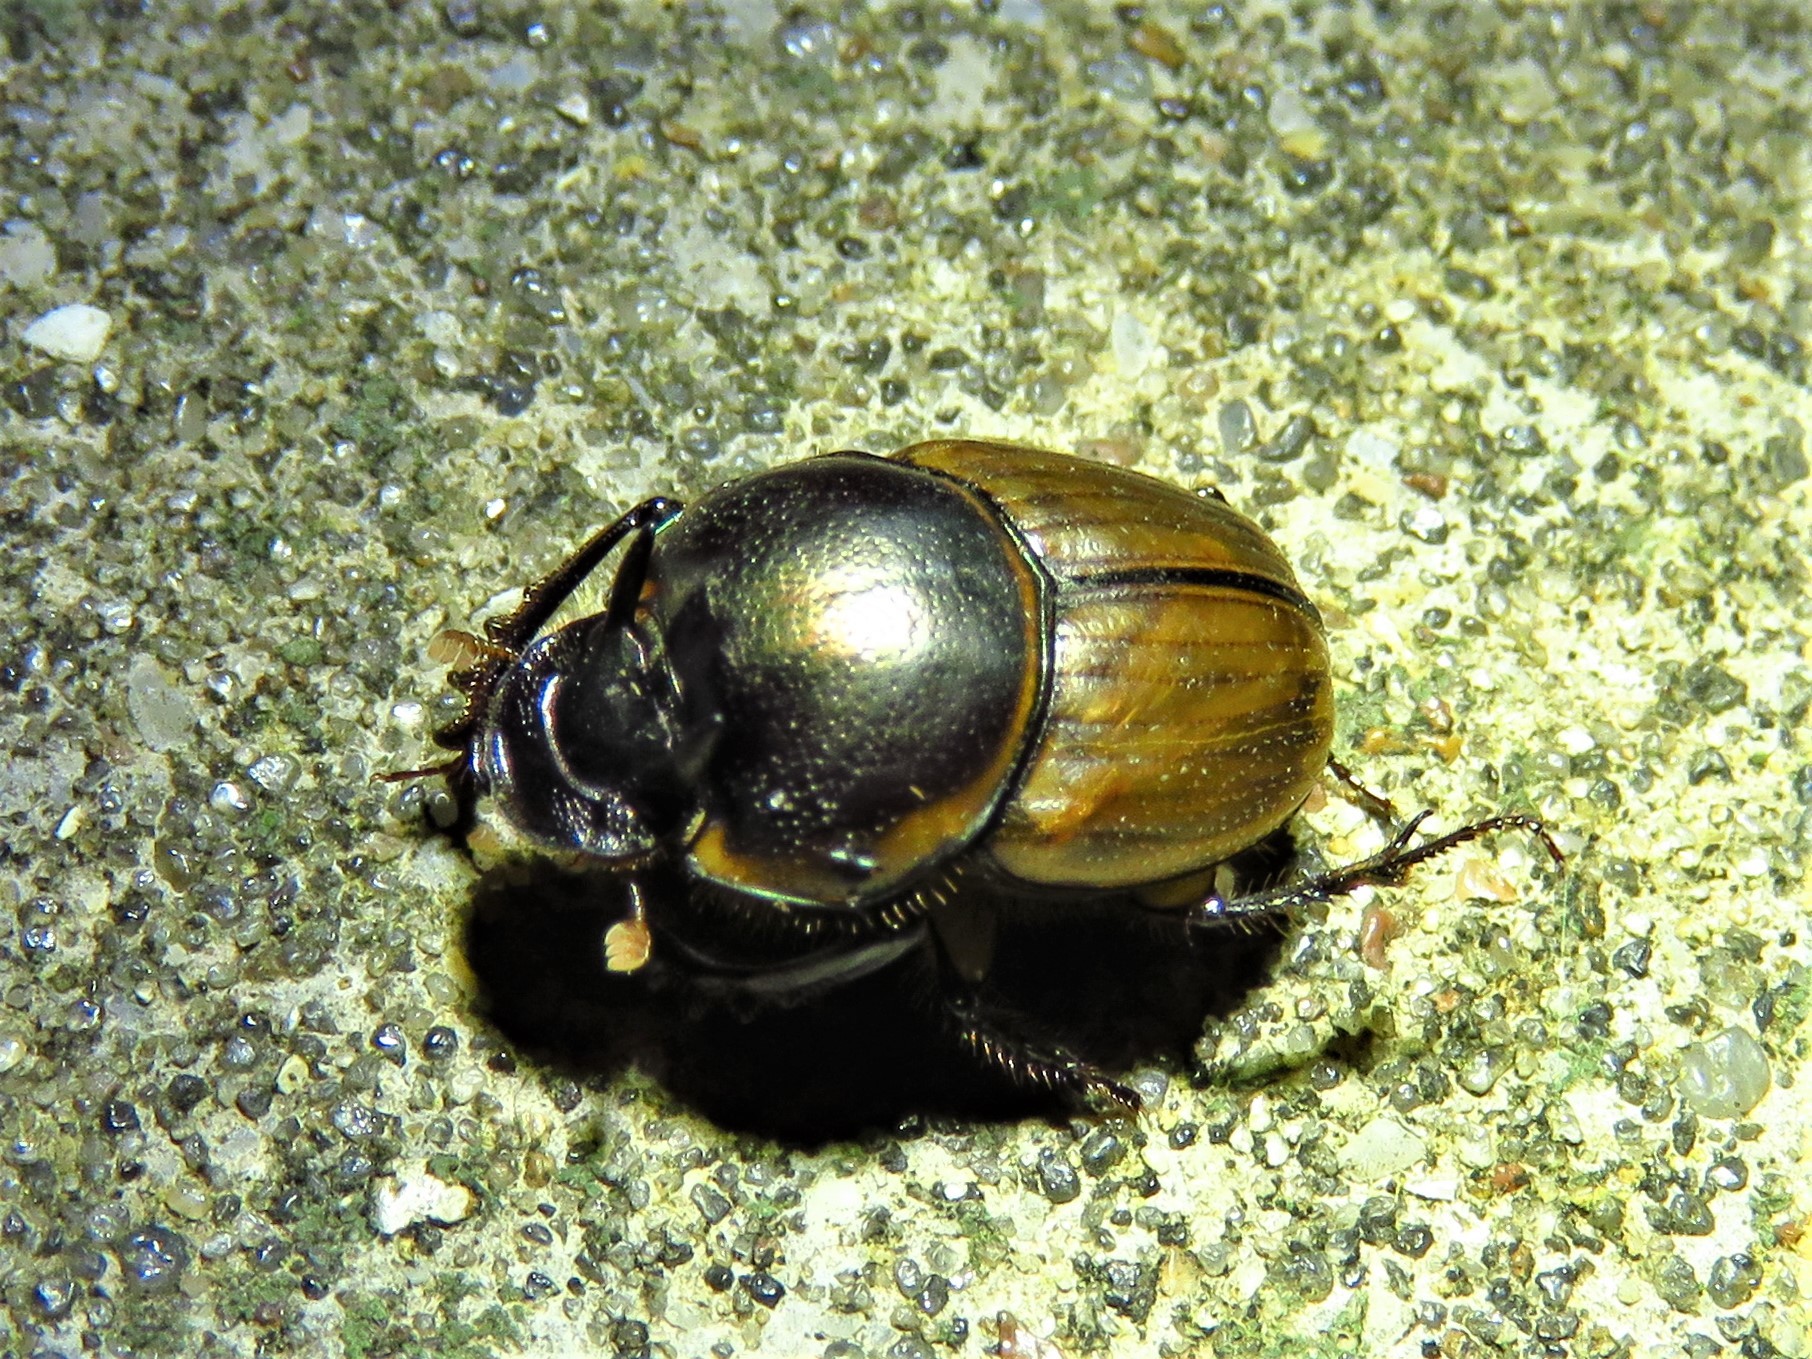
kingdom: Animalia
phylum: Arthropoda
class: Insecta
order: Coleoptera
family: Scarabaeidae
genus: Digitonthophagus
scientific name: Digitonthophagus gazella
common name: Brown dung beetle
